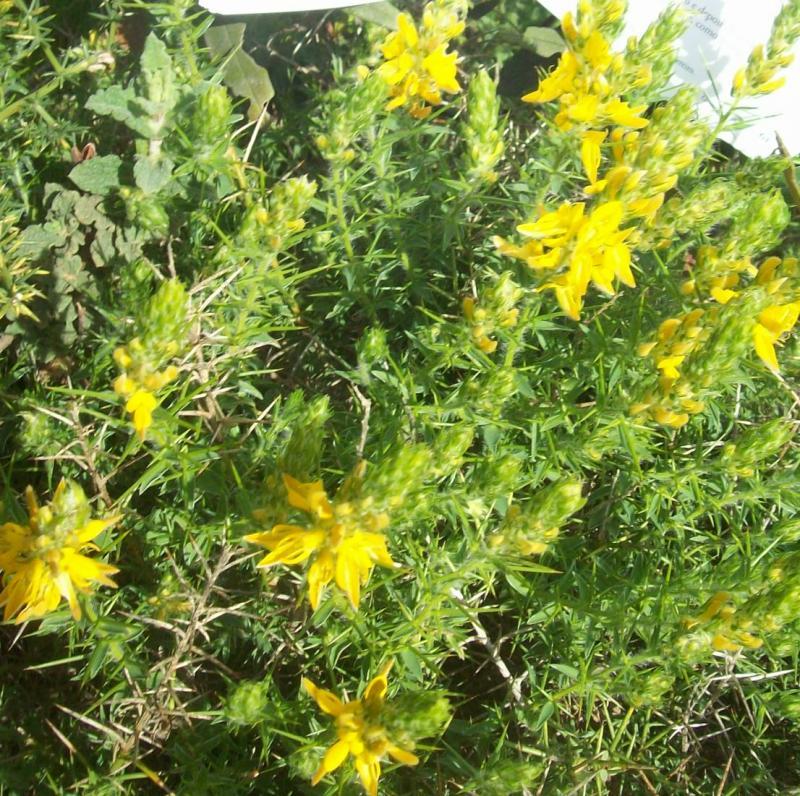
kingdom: Plantae
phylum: Tracheophyta
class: Magnoliopsida
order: Fabales
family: Fabaceae
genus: Genista
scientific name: Genista hirsuta
